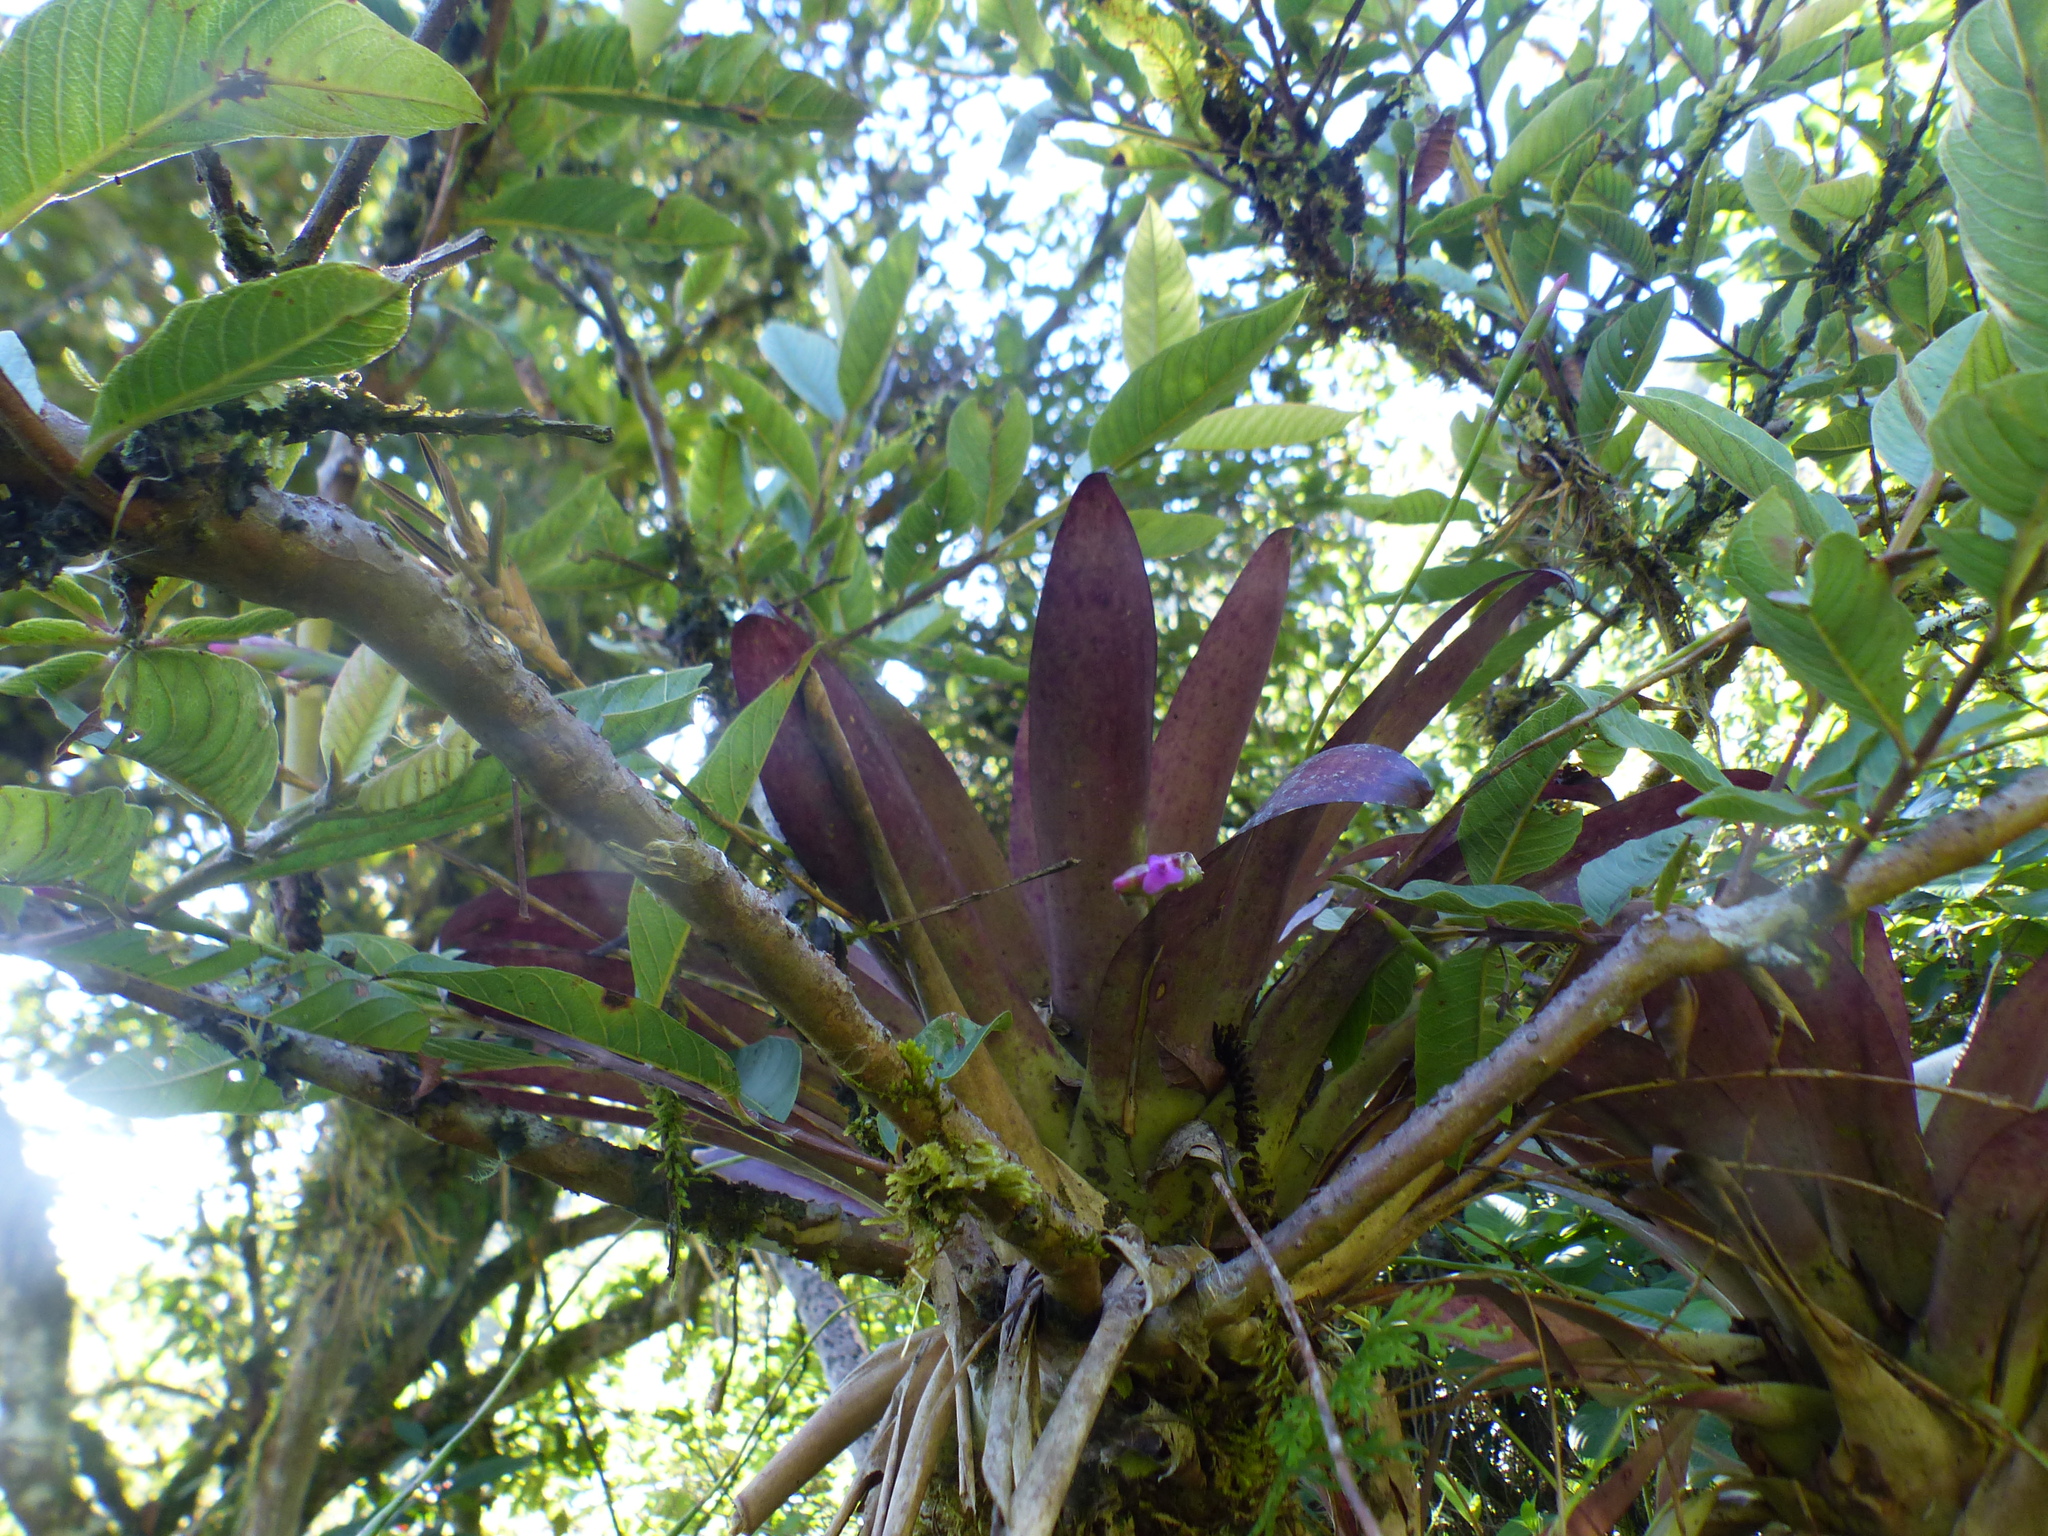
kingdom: Plantae
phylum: Tracheophyta
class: Liliopsida
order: Poales
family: Bromeliaceae
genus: Tillandsia
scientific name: Tillandsia complanata
